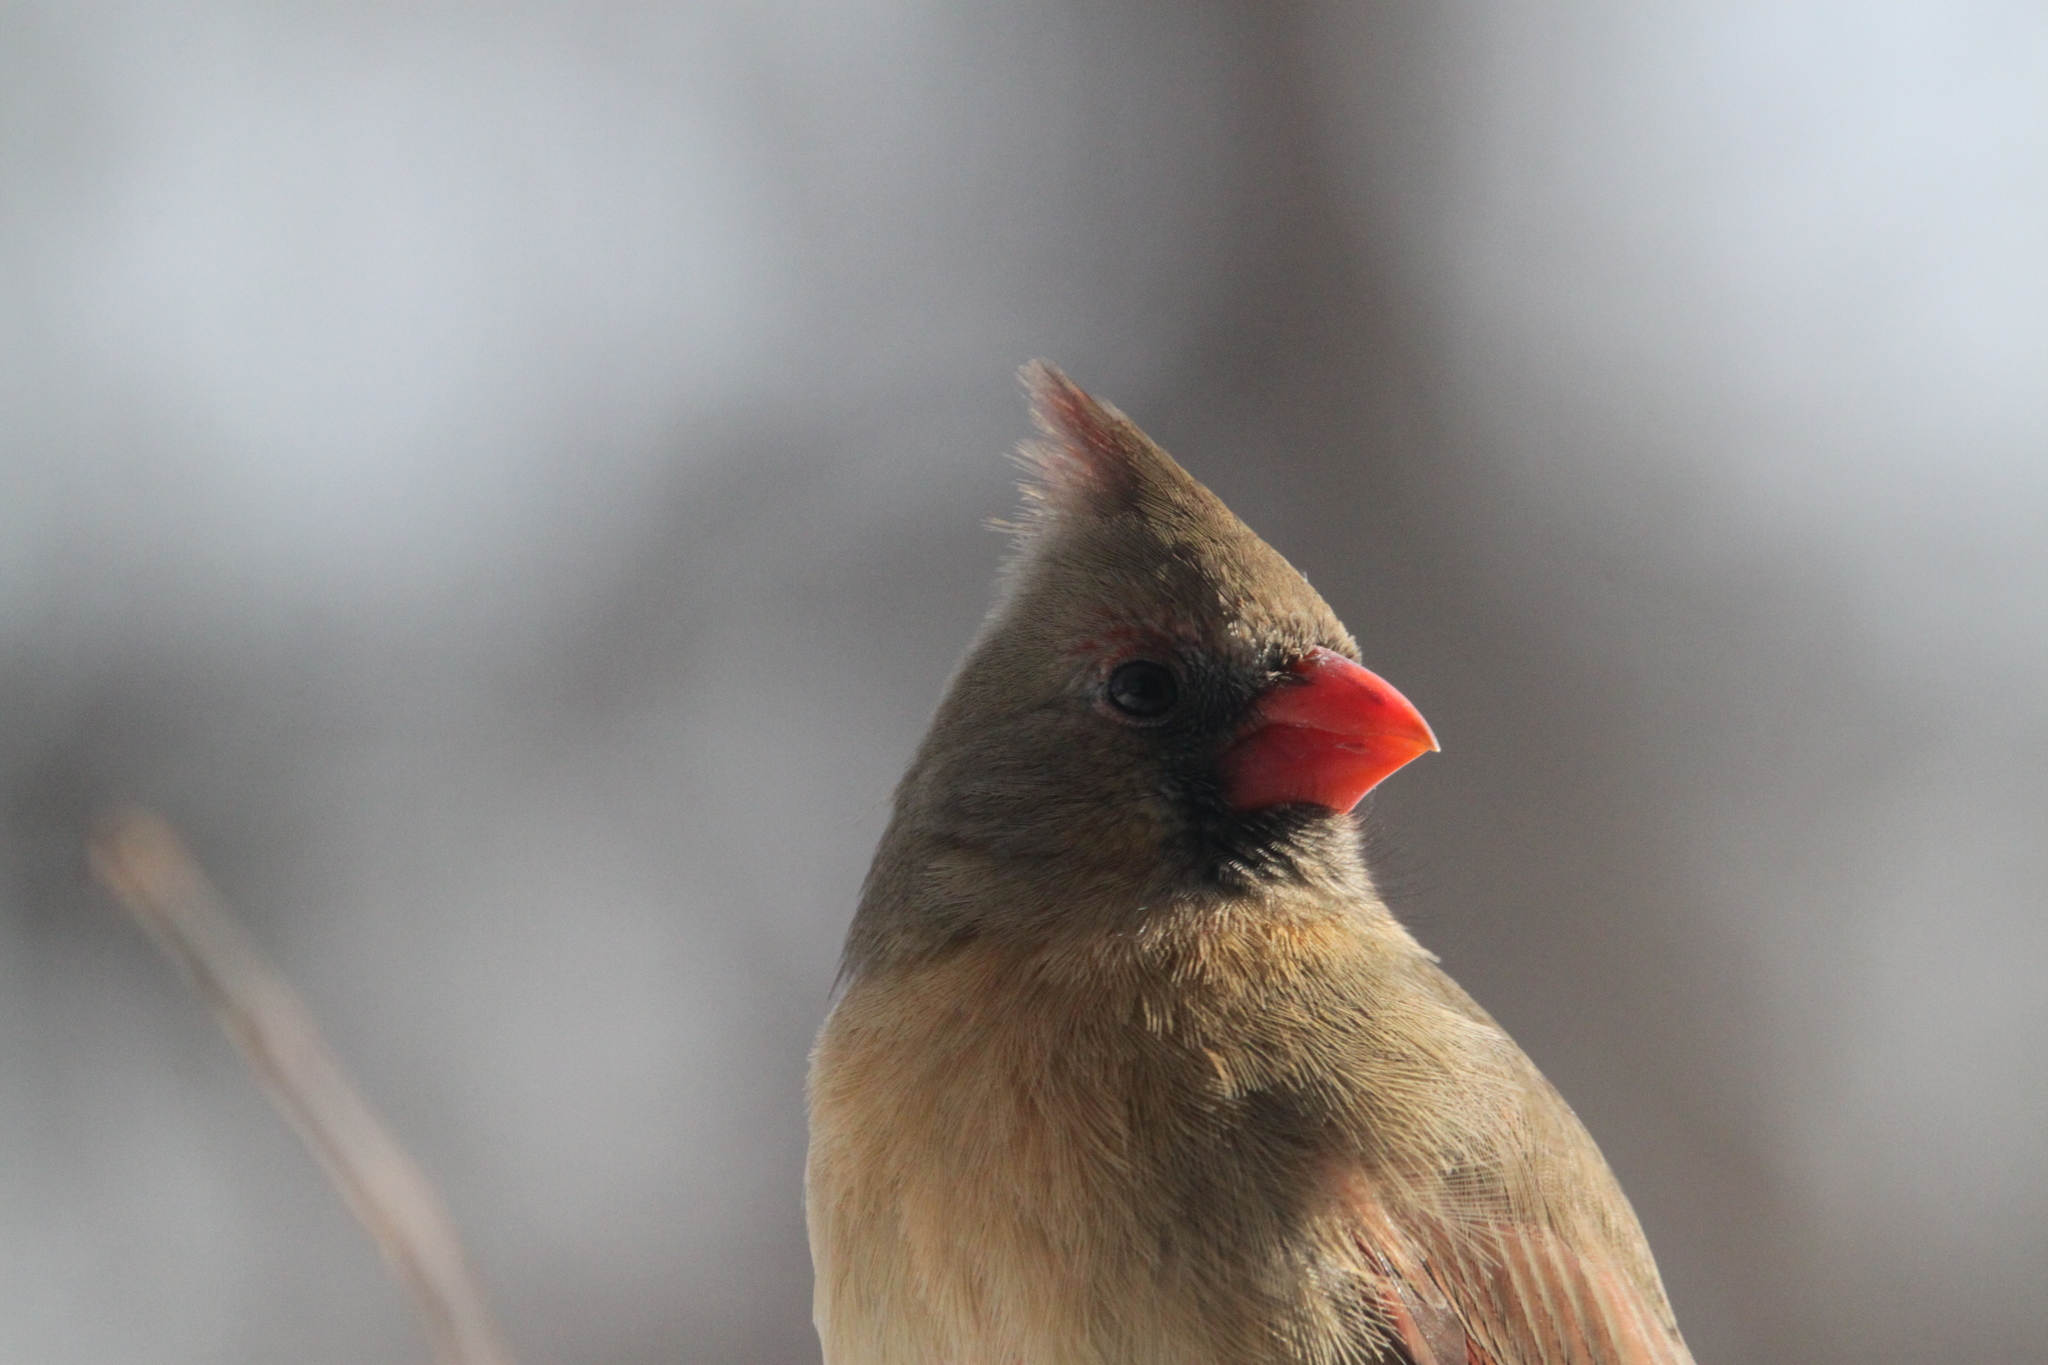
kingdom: Animalia
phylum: Chordata
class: Aves
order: Passeriformes
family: Cardinalidae
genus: Cardinalis
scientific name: Cardinalis cardinalis
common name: Northern cardinal
